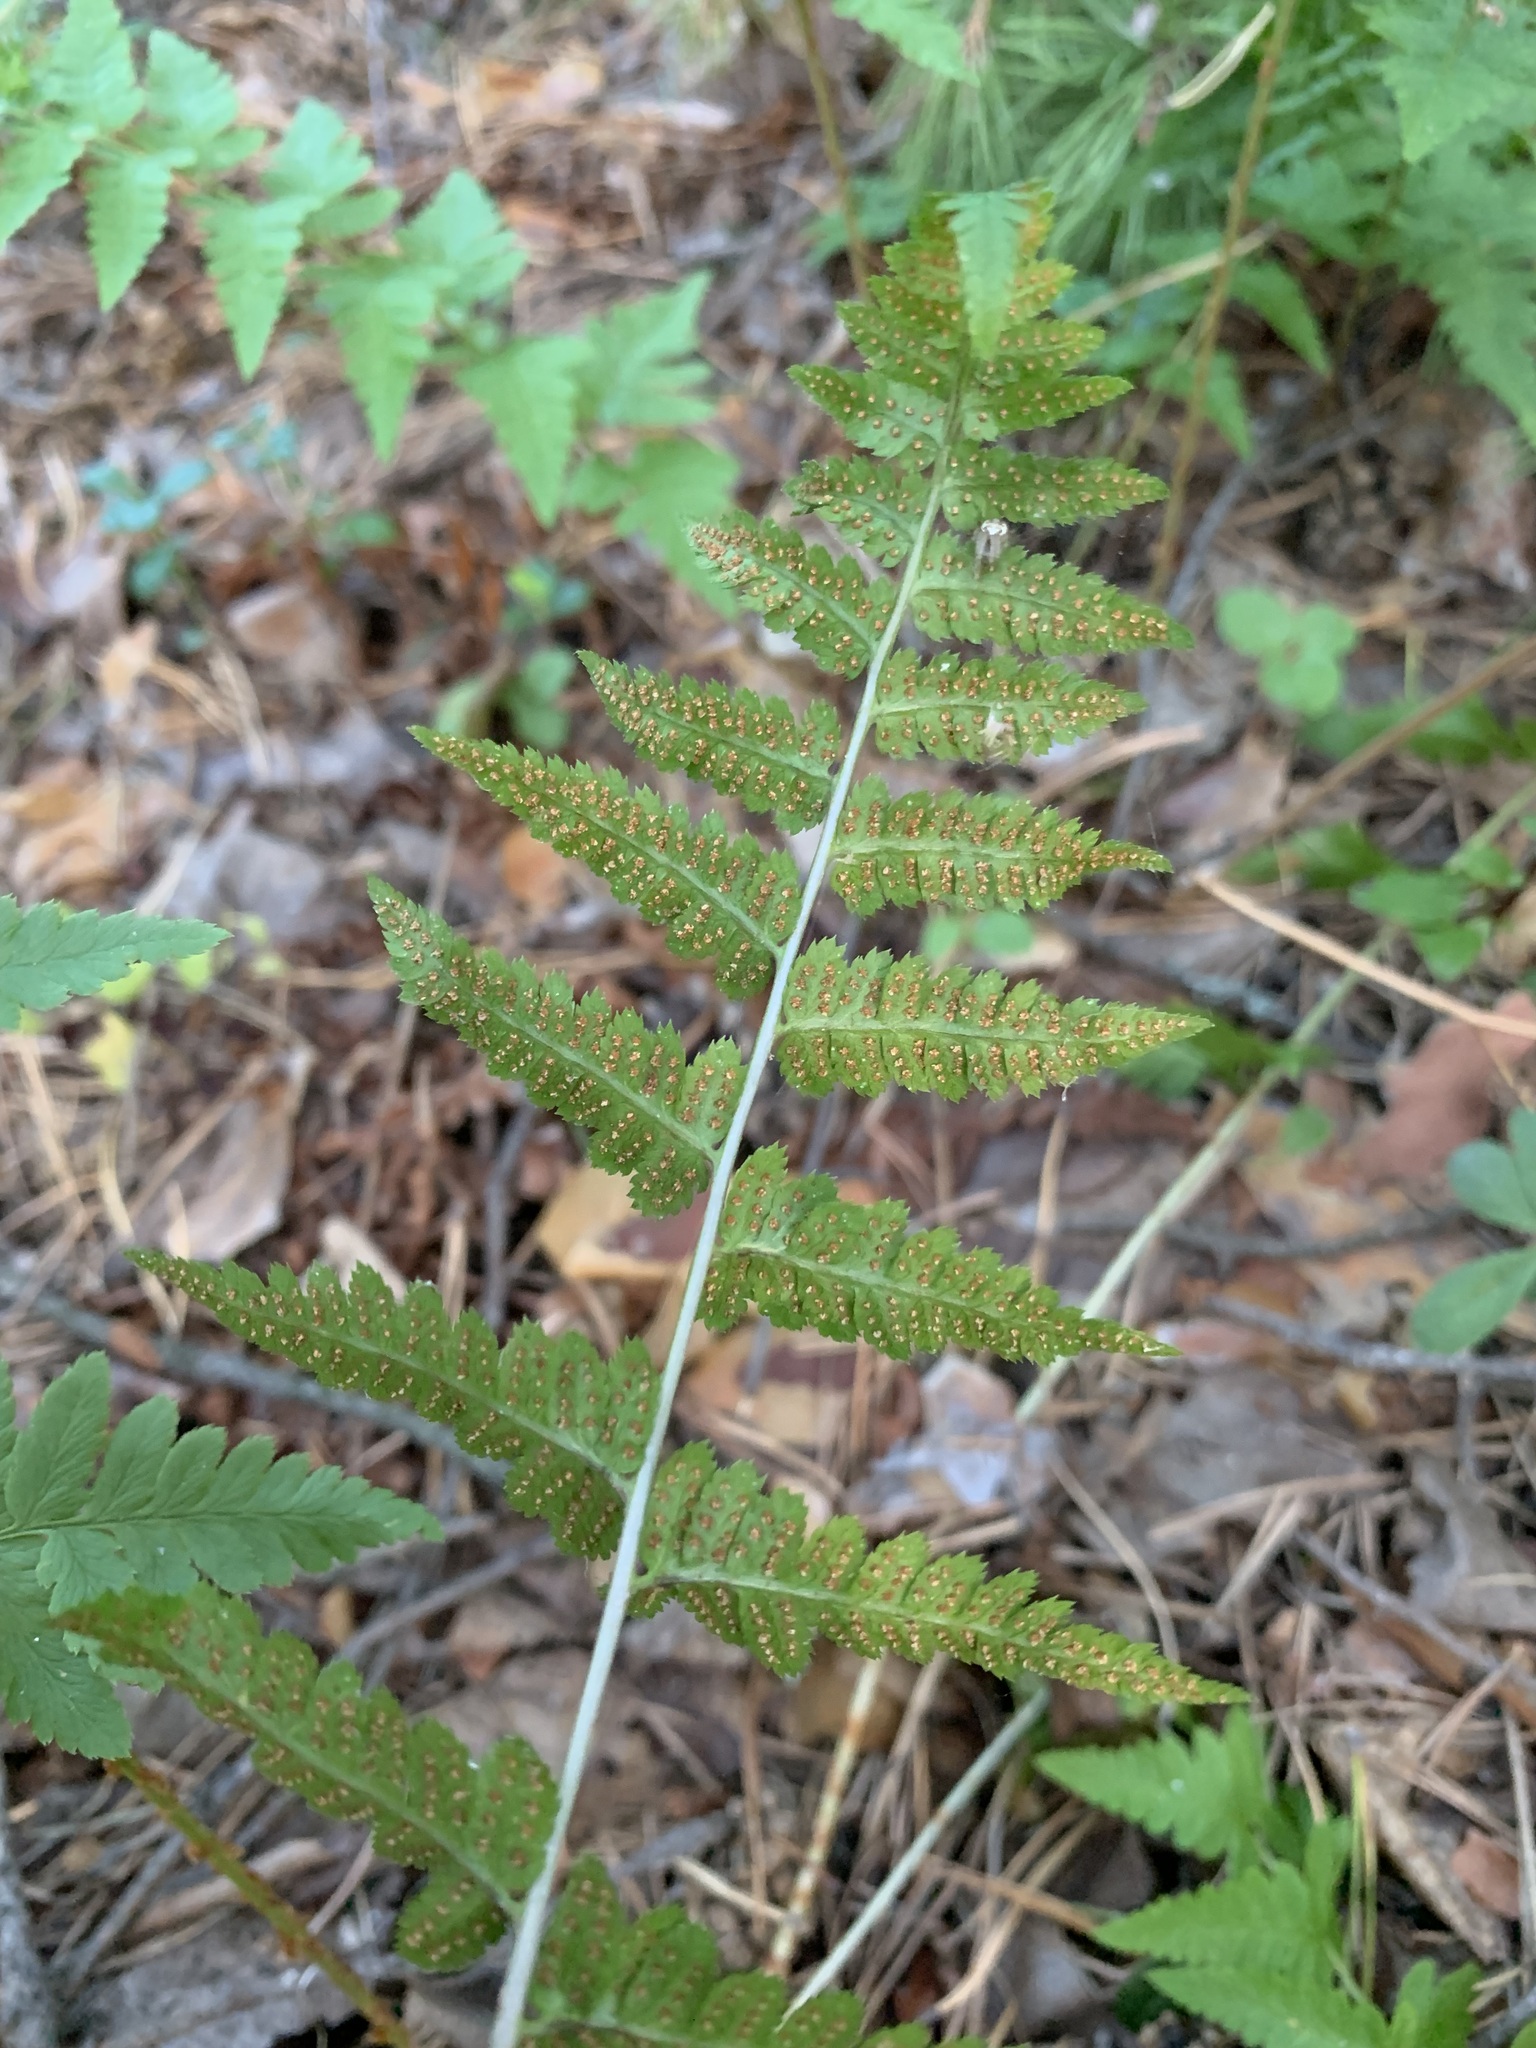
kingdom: Plantae
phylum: Tracheophyta
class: Polypodiopsida
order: Polypodiales
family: Dryopteridaceae
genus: Dryopteris
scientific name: Dryopteris cristata
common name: Crested wood fern
